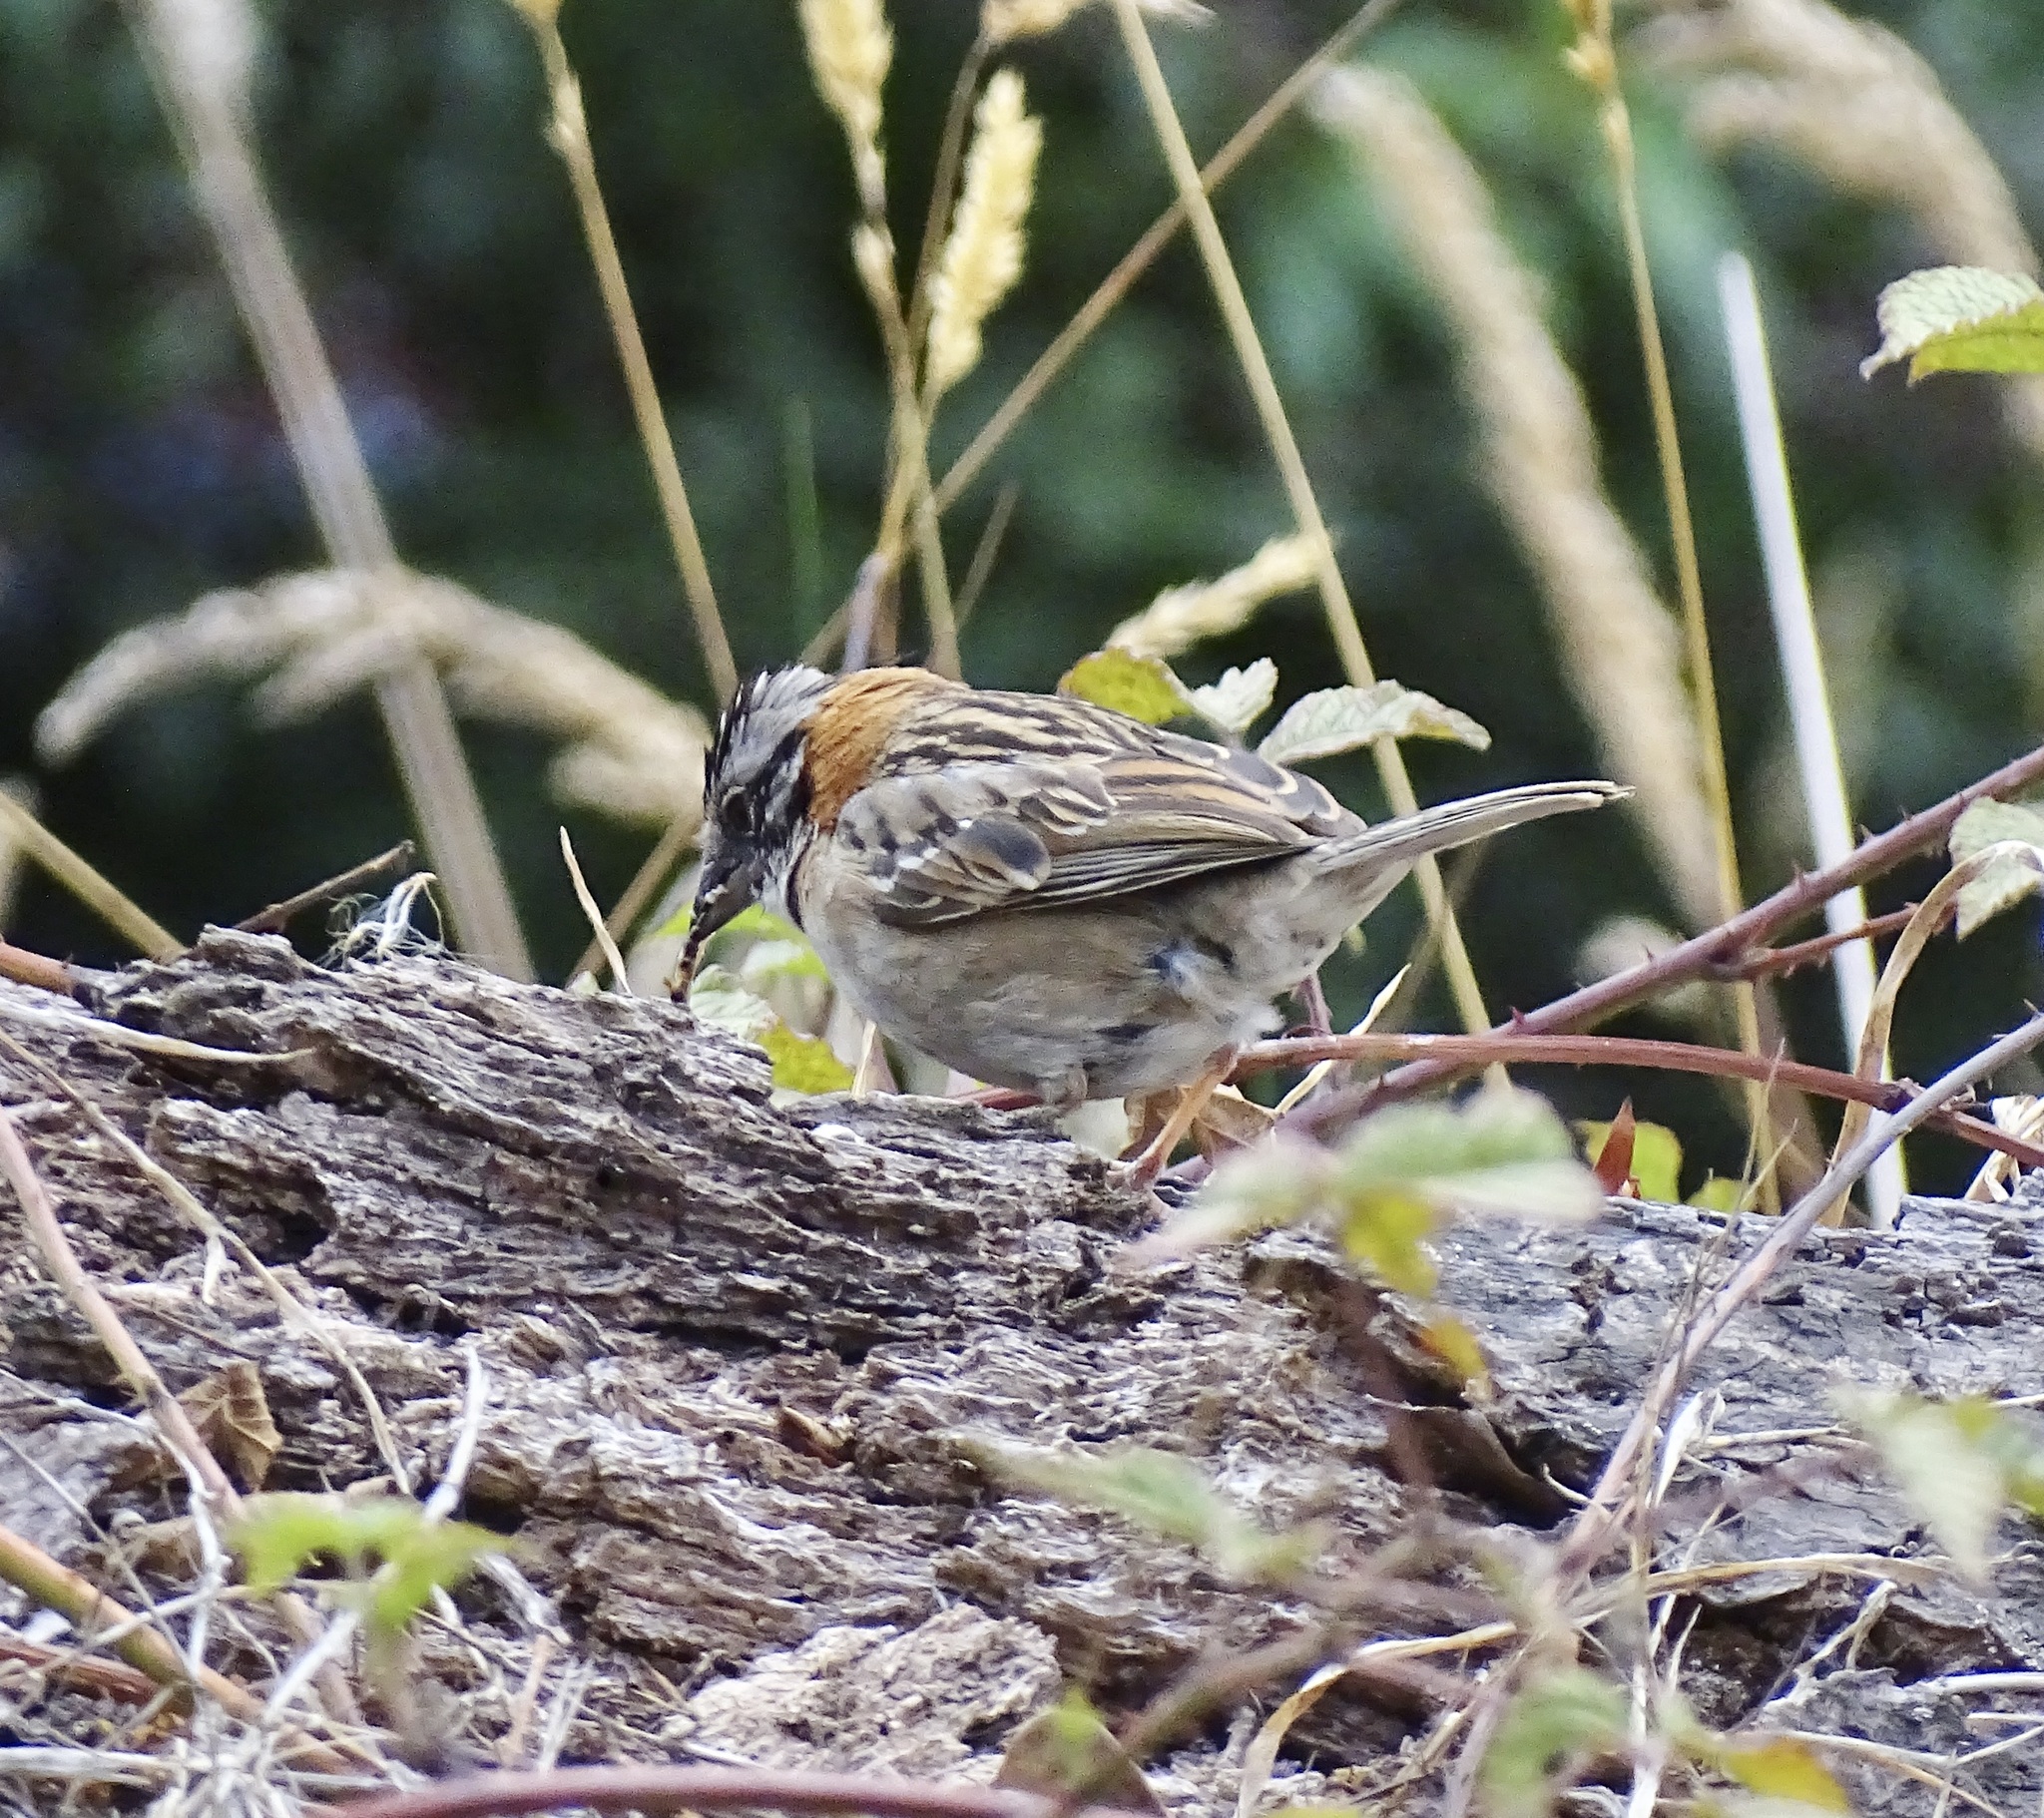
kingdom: Animalia
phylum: Chordata
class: Aves
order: Passeriformes
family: Passerellidae
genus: Zonotrichia
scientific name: Zonotrichia capensis
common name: Rufous-collared sparrow
